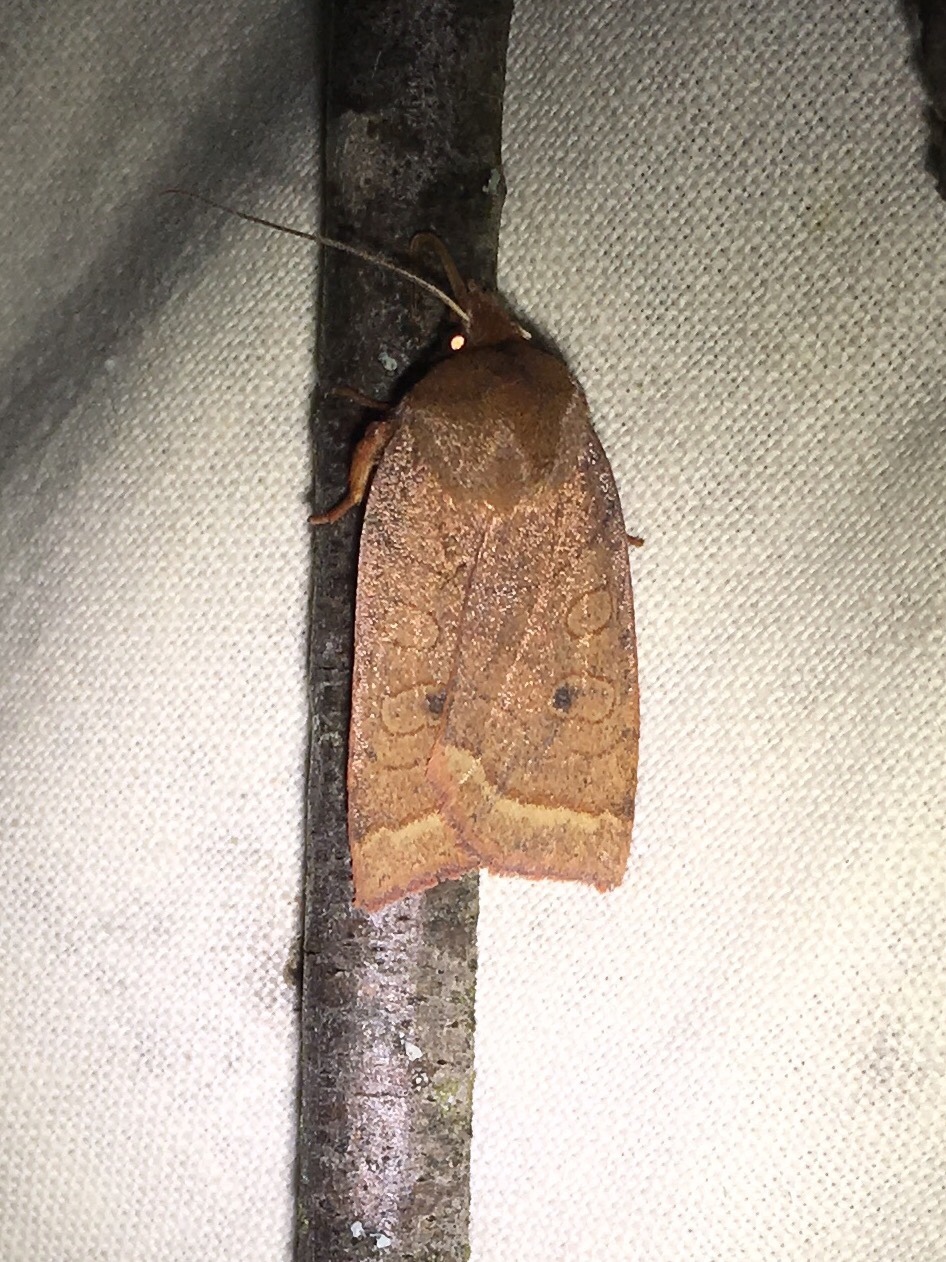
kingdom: Animalia
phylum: Arthropoda
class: Insecta
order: Lepidoptera
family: Noctuidae
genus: Epiglaea
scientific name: Epiglaea apiata
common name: Pointed sallow
